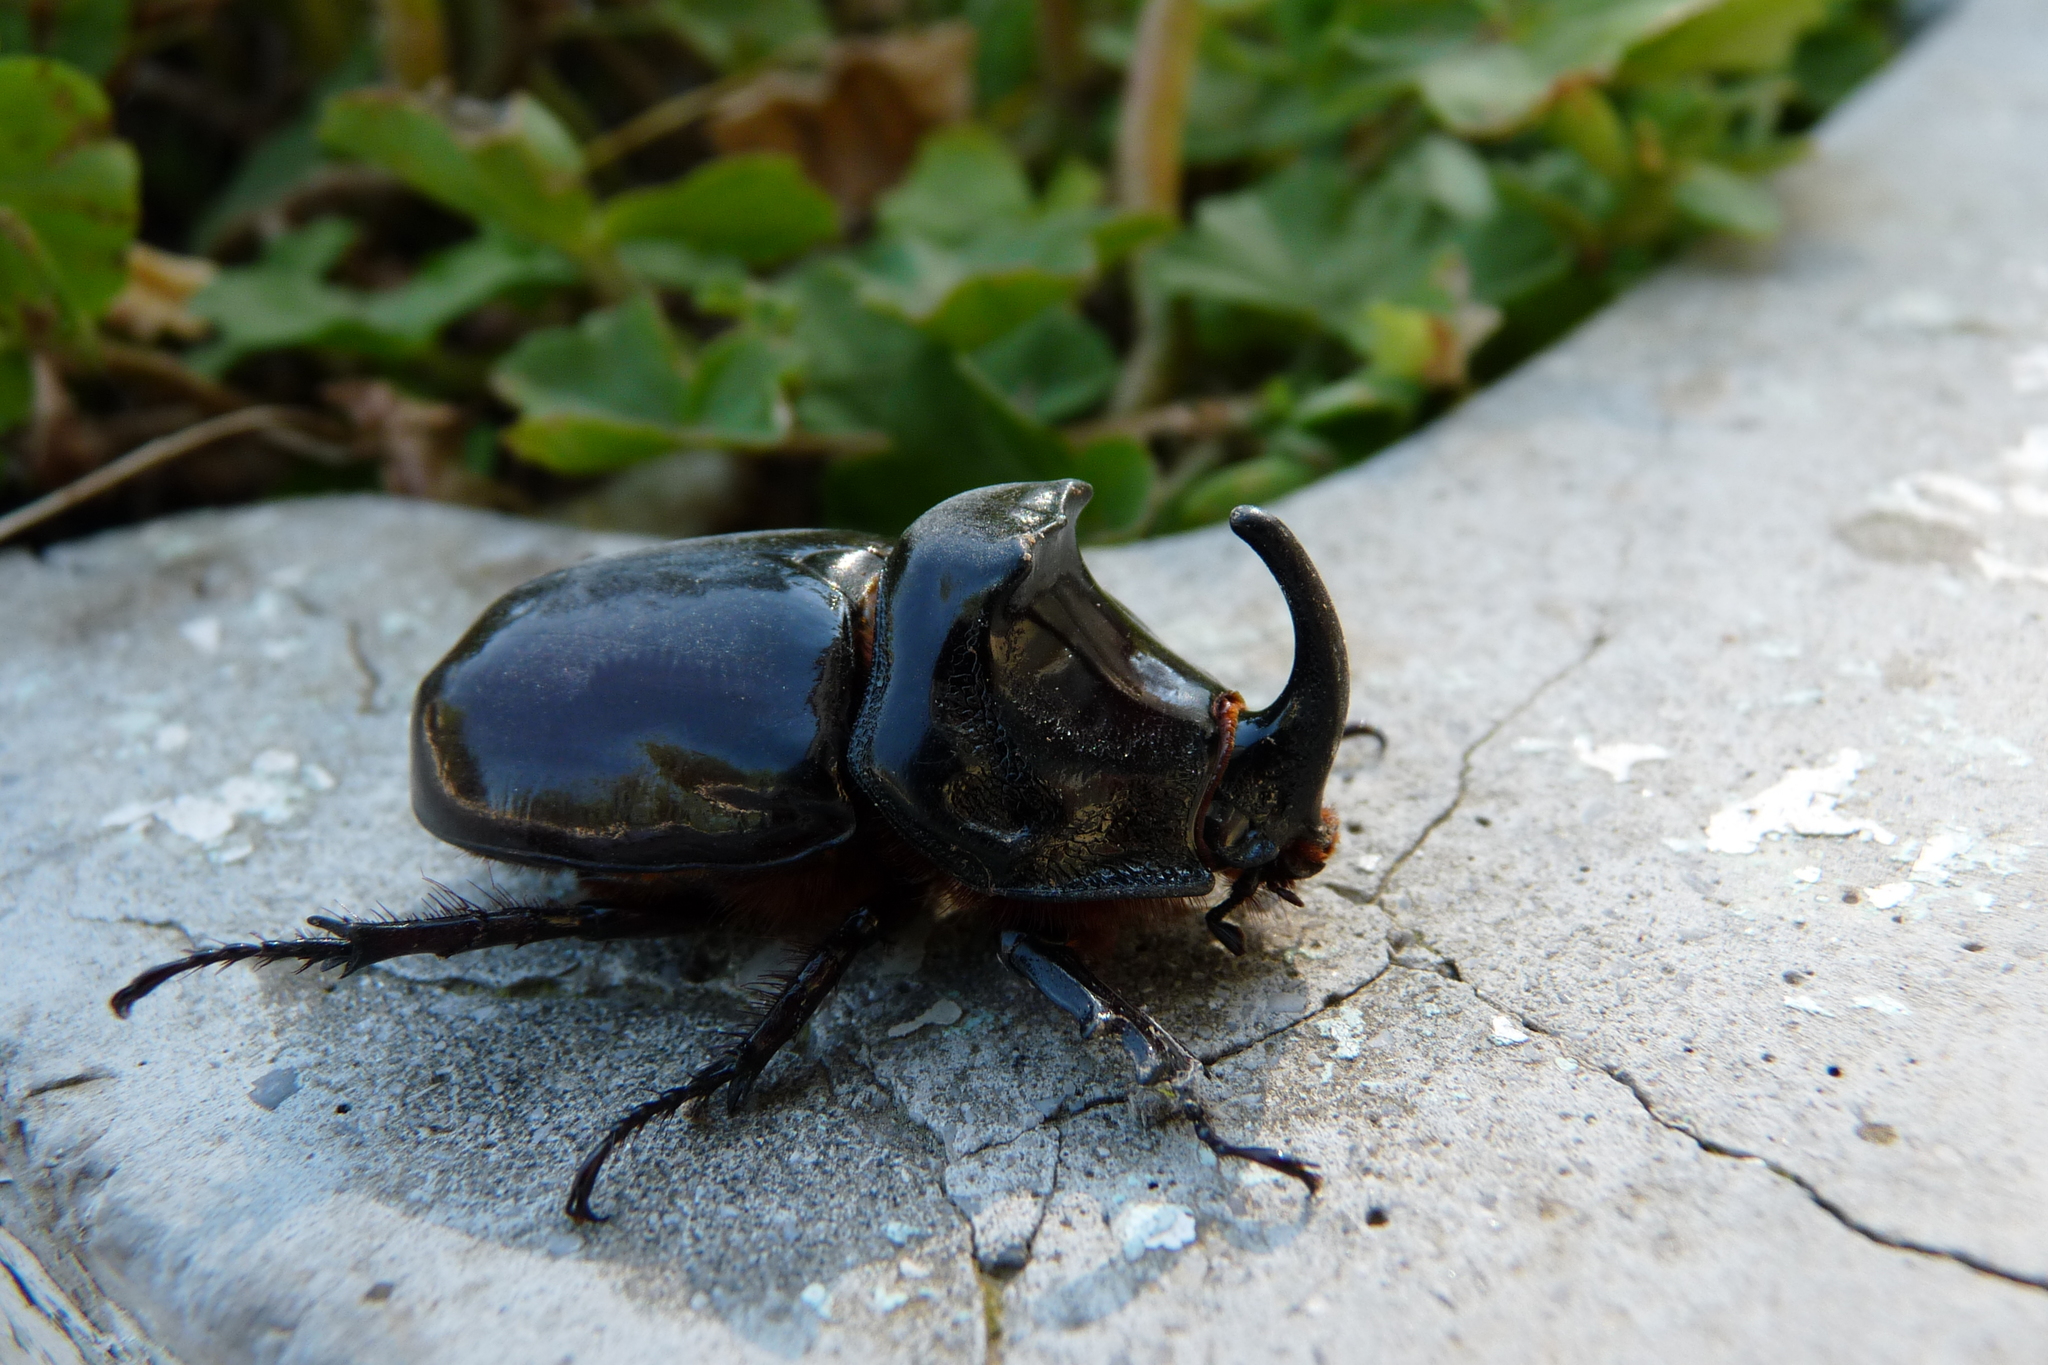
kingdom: Animalia
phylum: Arthropoda
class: Insecta
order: Coleoptera
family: Scarabaeidae
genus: Oryctes
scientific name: Oryctes nasicornis
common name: European rhinoceros beetle
